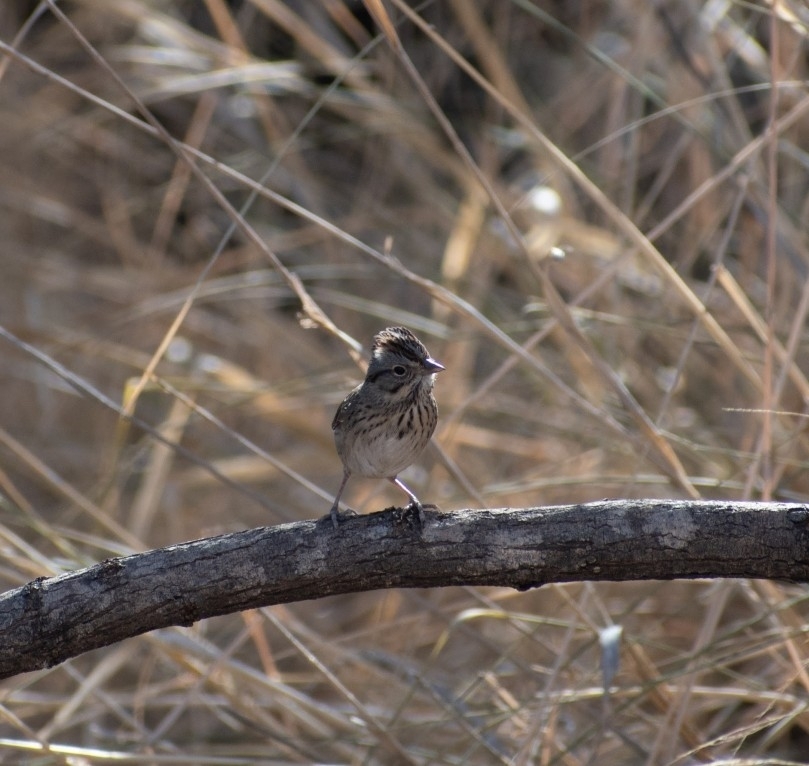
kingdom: Animalia
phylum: Chordata
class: Aves
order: Passeriformes
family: Passerellidae
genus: Melospiza
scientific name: Melospiza lincolnii
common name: Lincoln's sparrow
